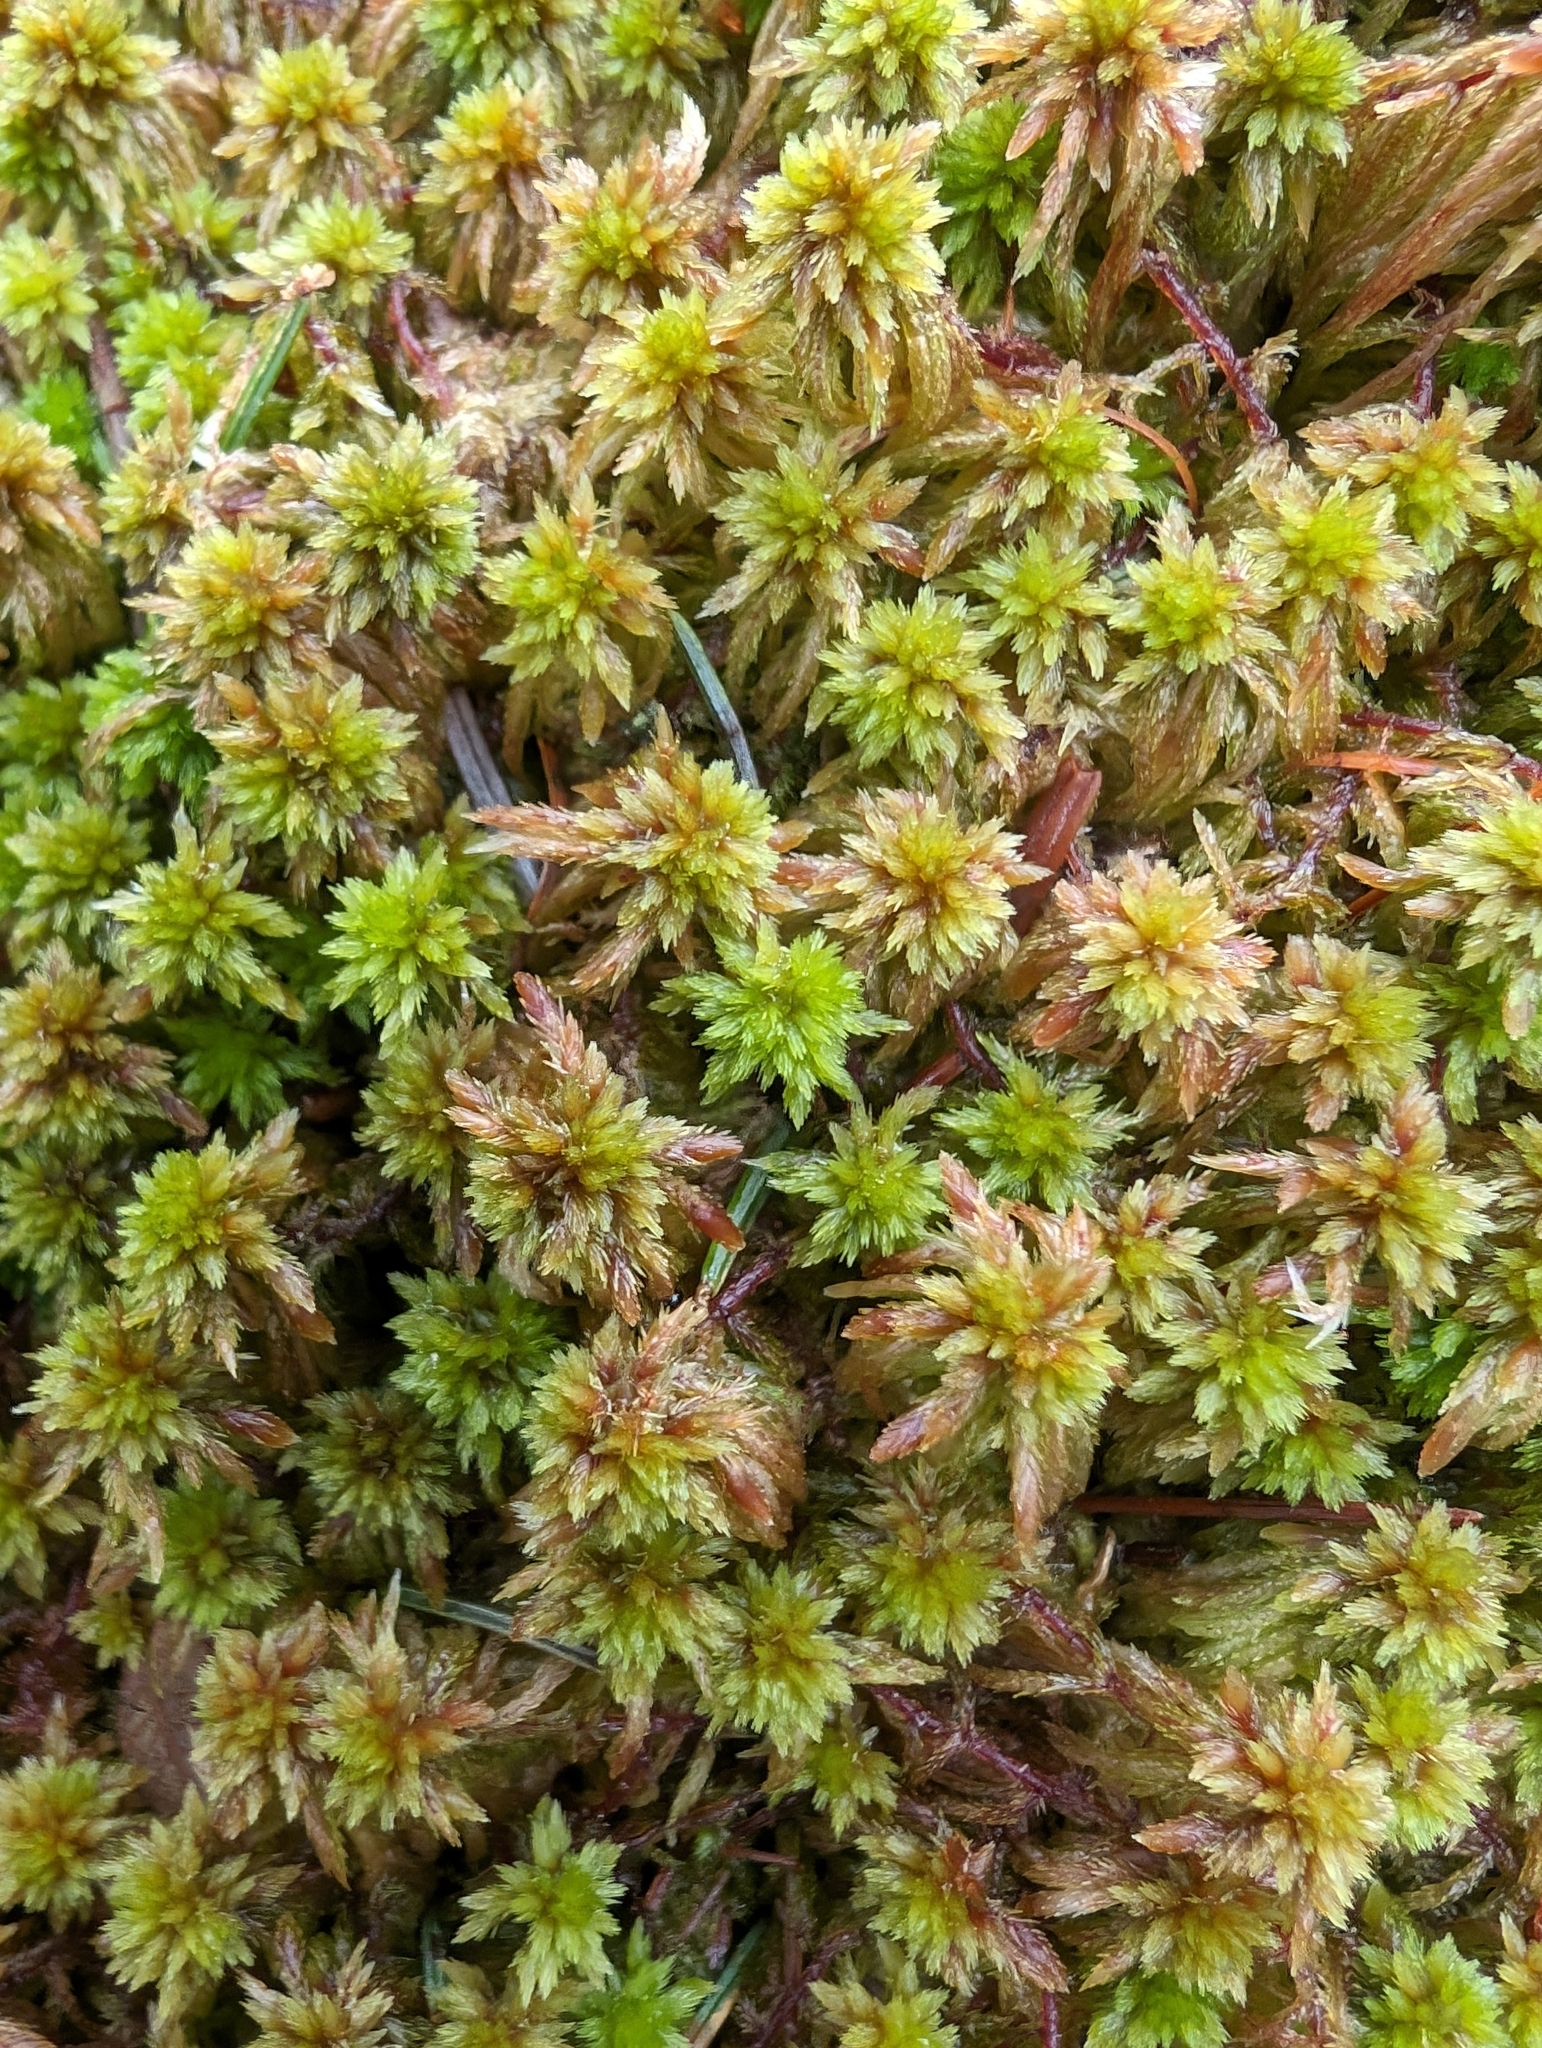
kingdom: Plantae
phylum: Bryophyta
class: Sphagnopsida
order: Sphagnales
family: Sphagnaceae
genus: Sphagnum
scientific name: Sphagnum subnitens
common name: Lustrous bog-moss
